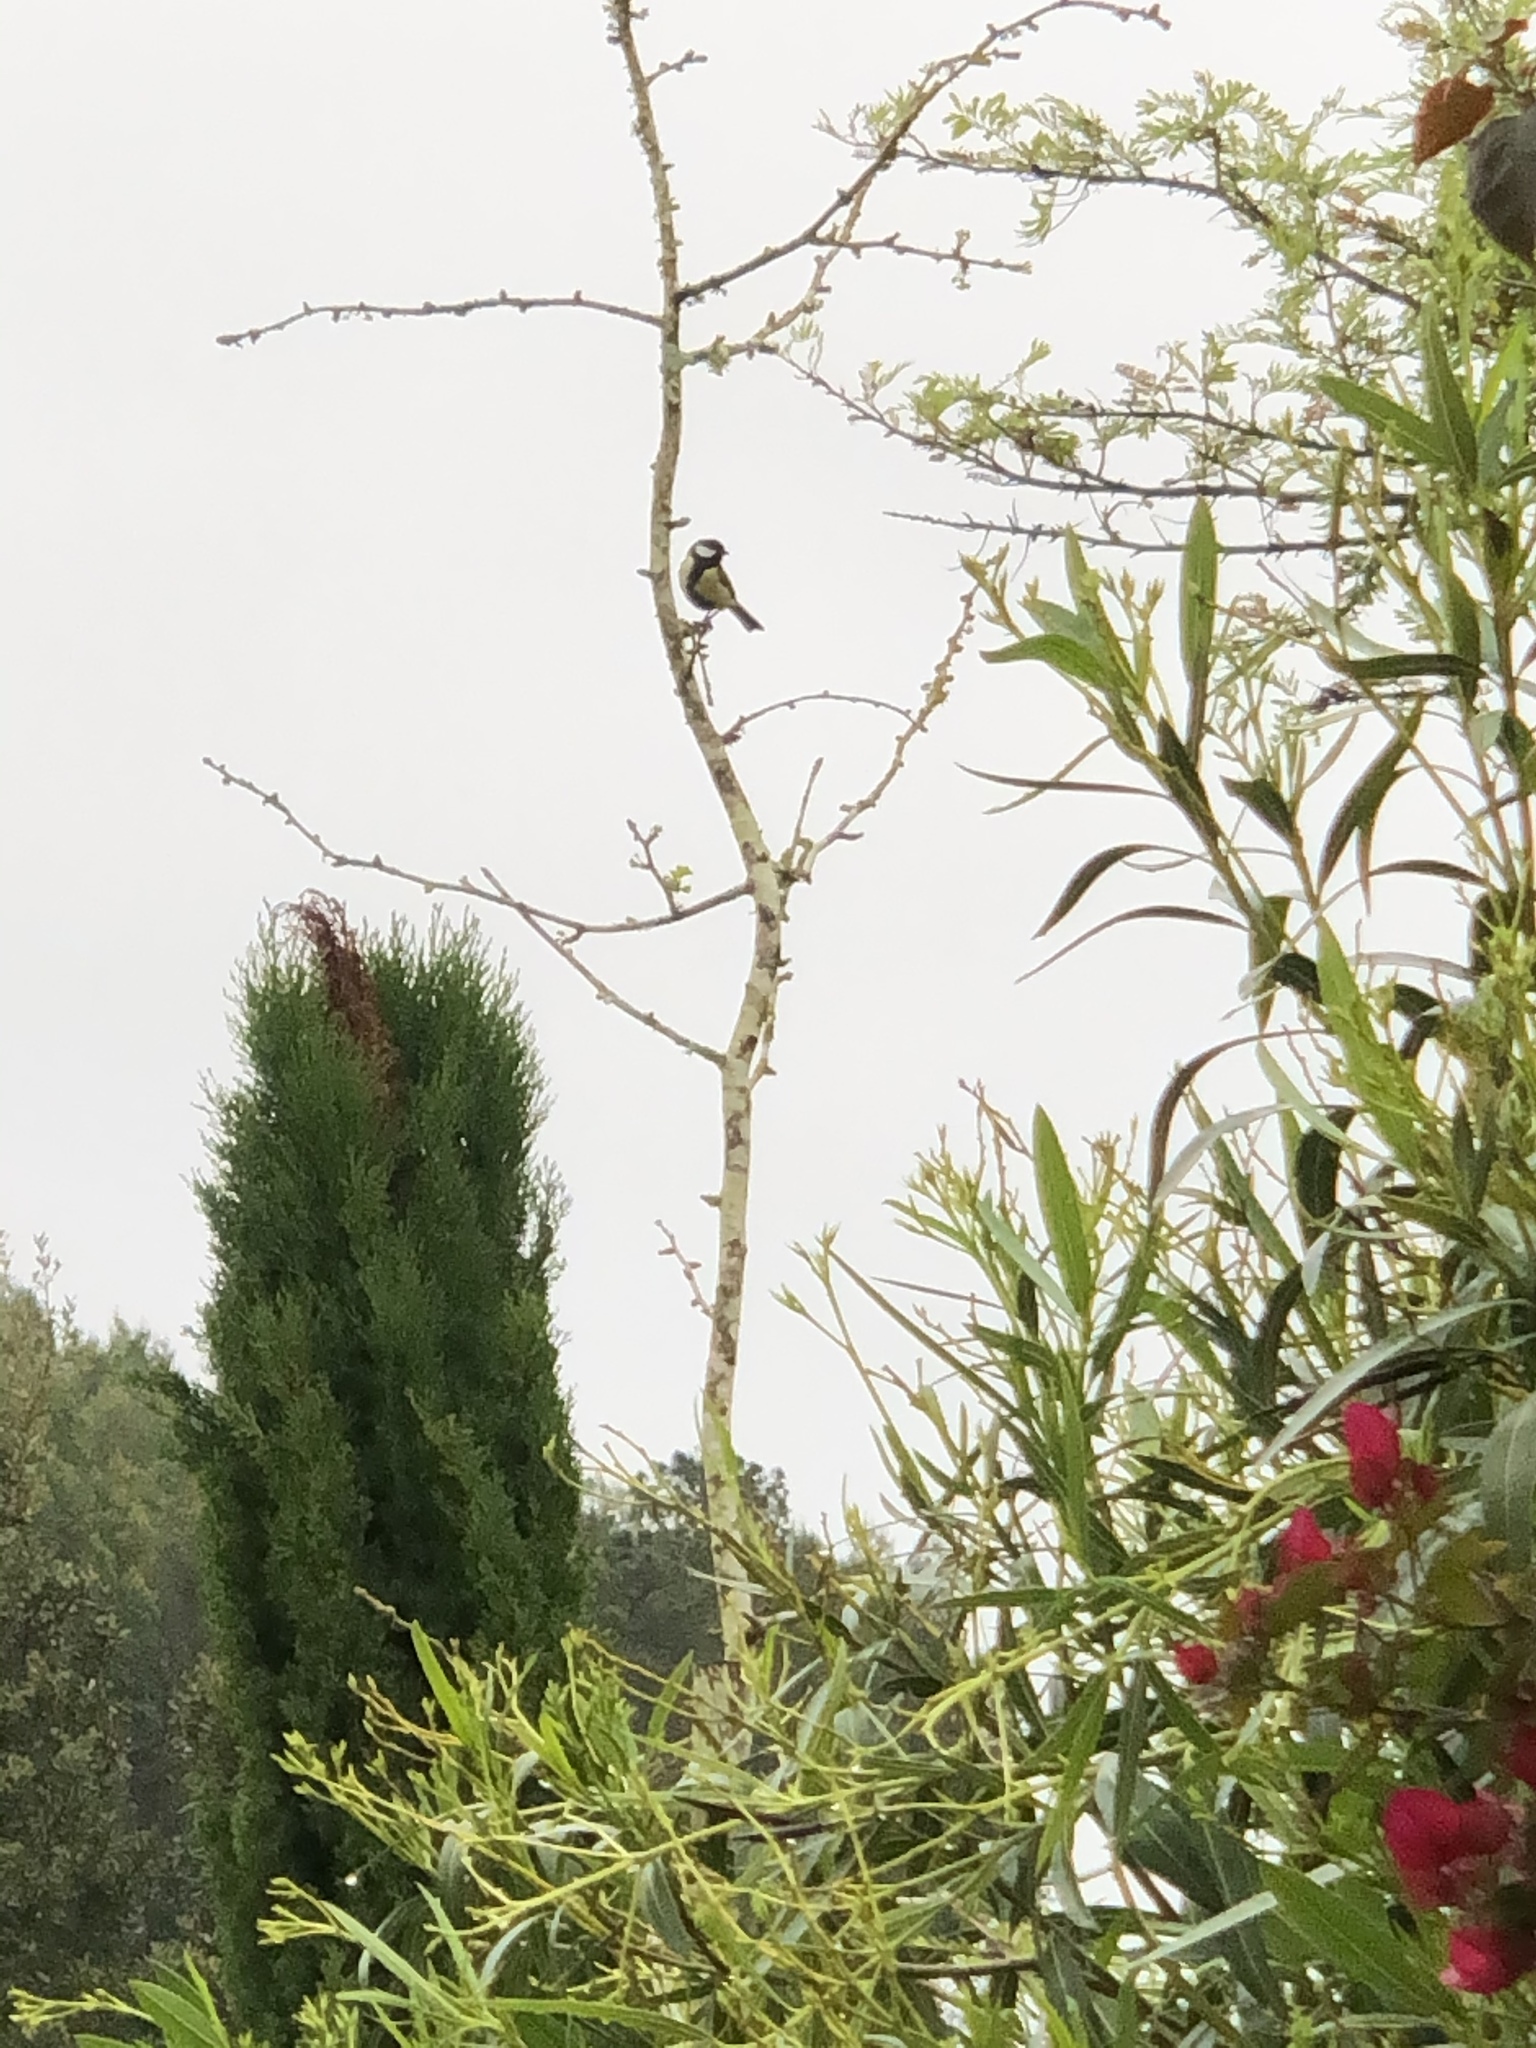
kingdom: Animalia
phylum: Chordata
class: Aves
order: Passeriformes
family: Paridae
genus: Parus
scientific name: Parus major
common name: Great tit
